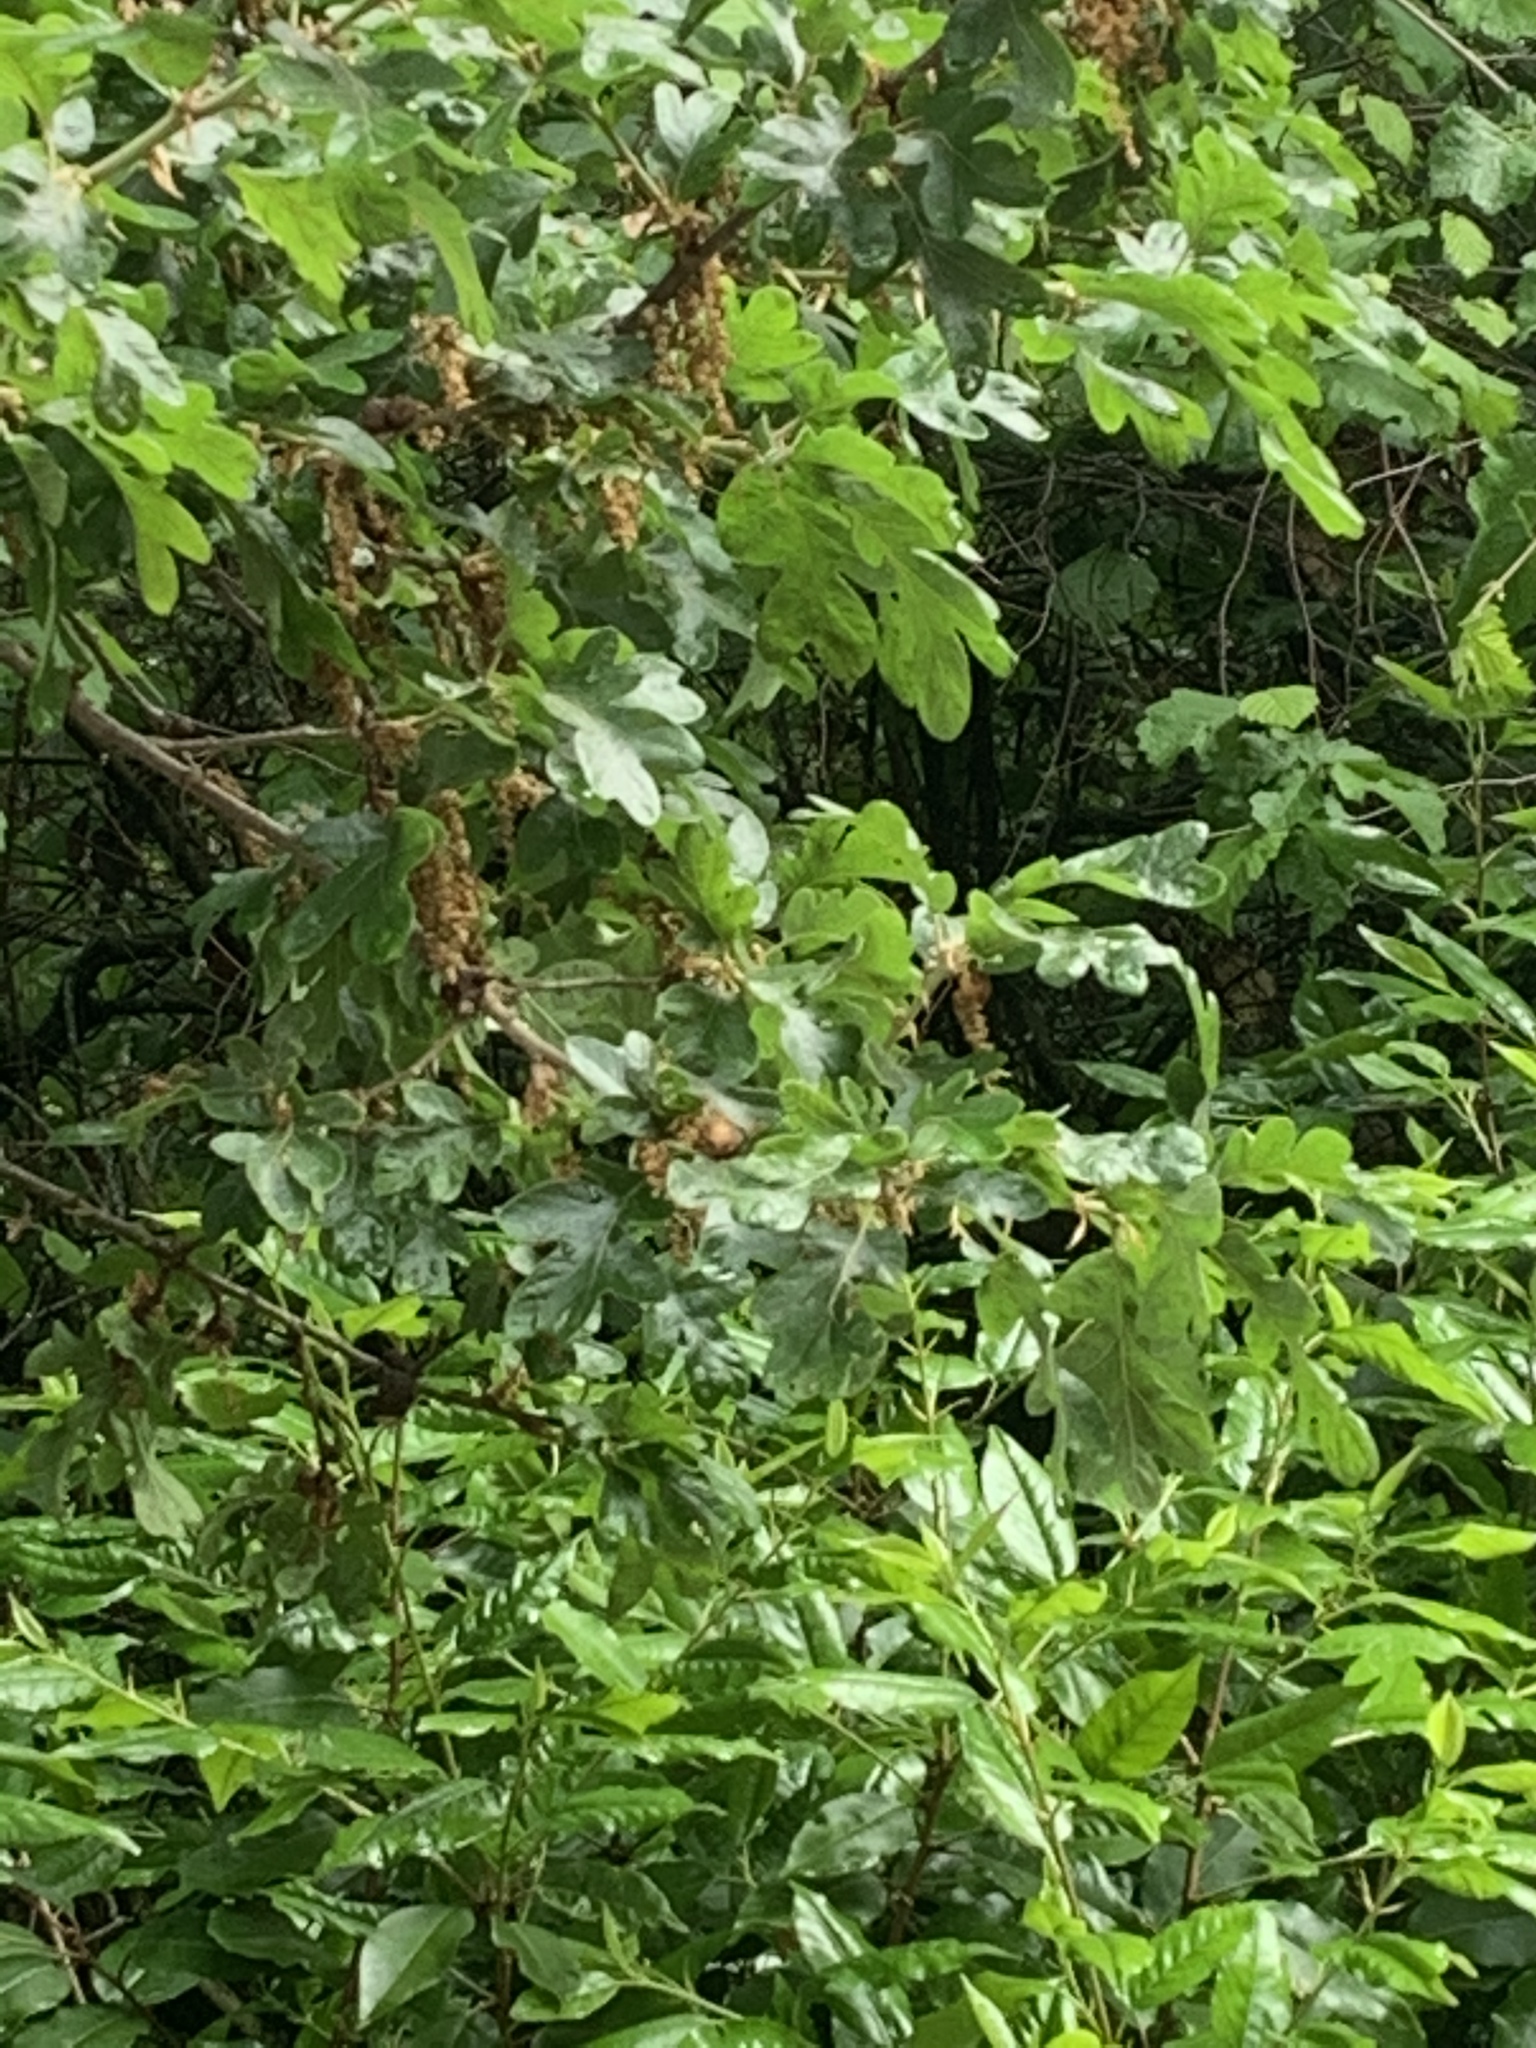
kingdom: Plantae
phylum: Tracheophyta
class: Magnoliopsida
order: Fagales
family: Fagaceae
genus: Quercus
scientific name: Quercus garryana
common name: Garry oak
